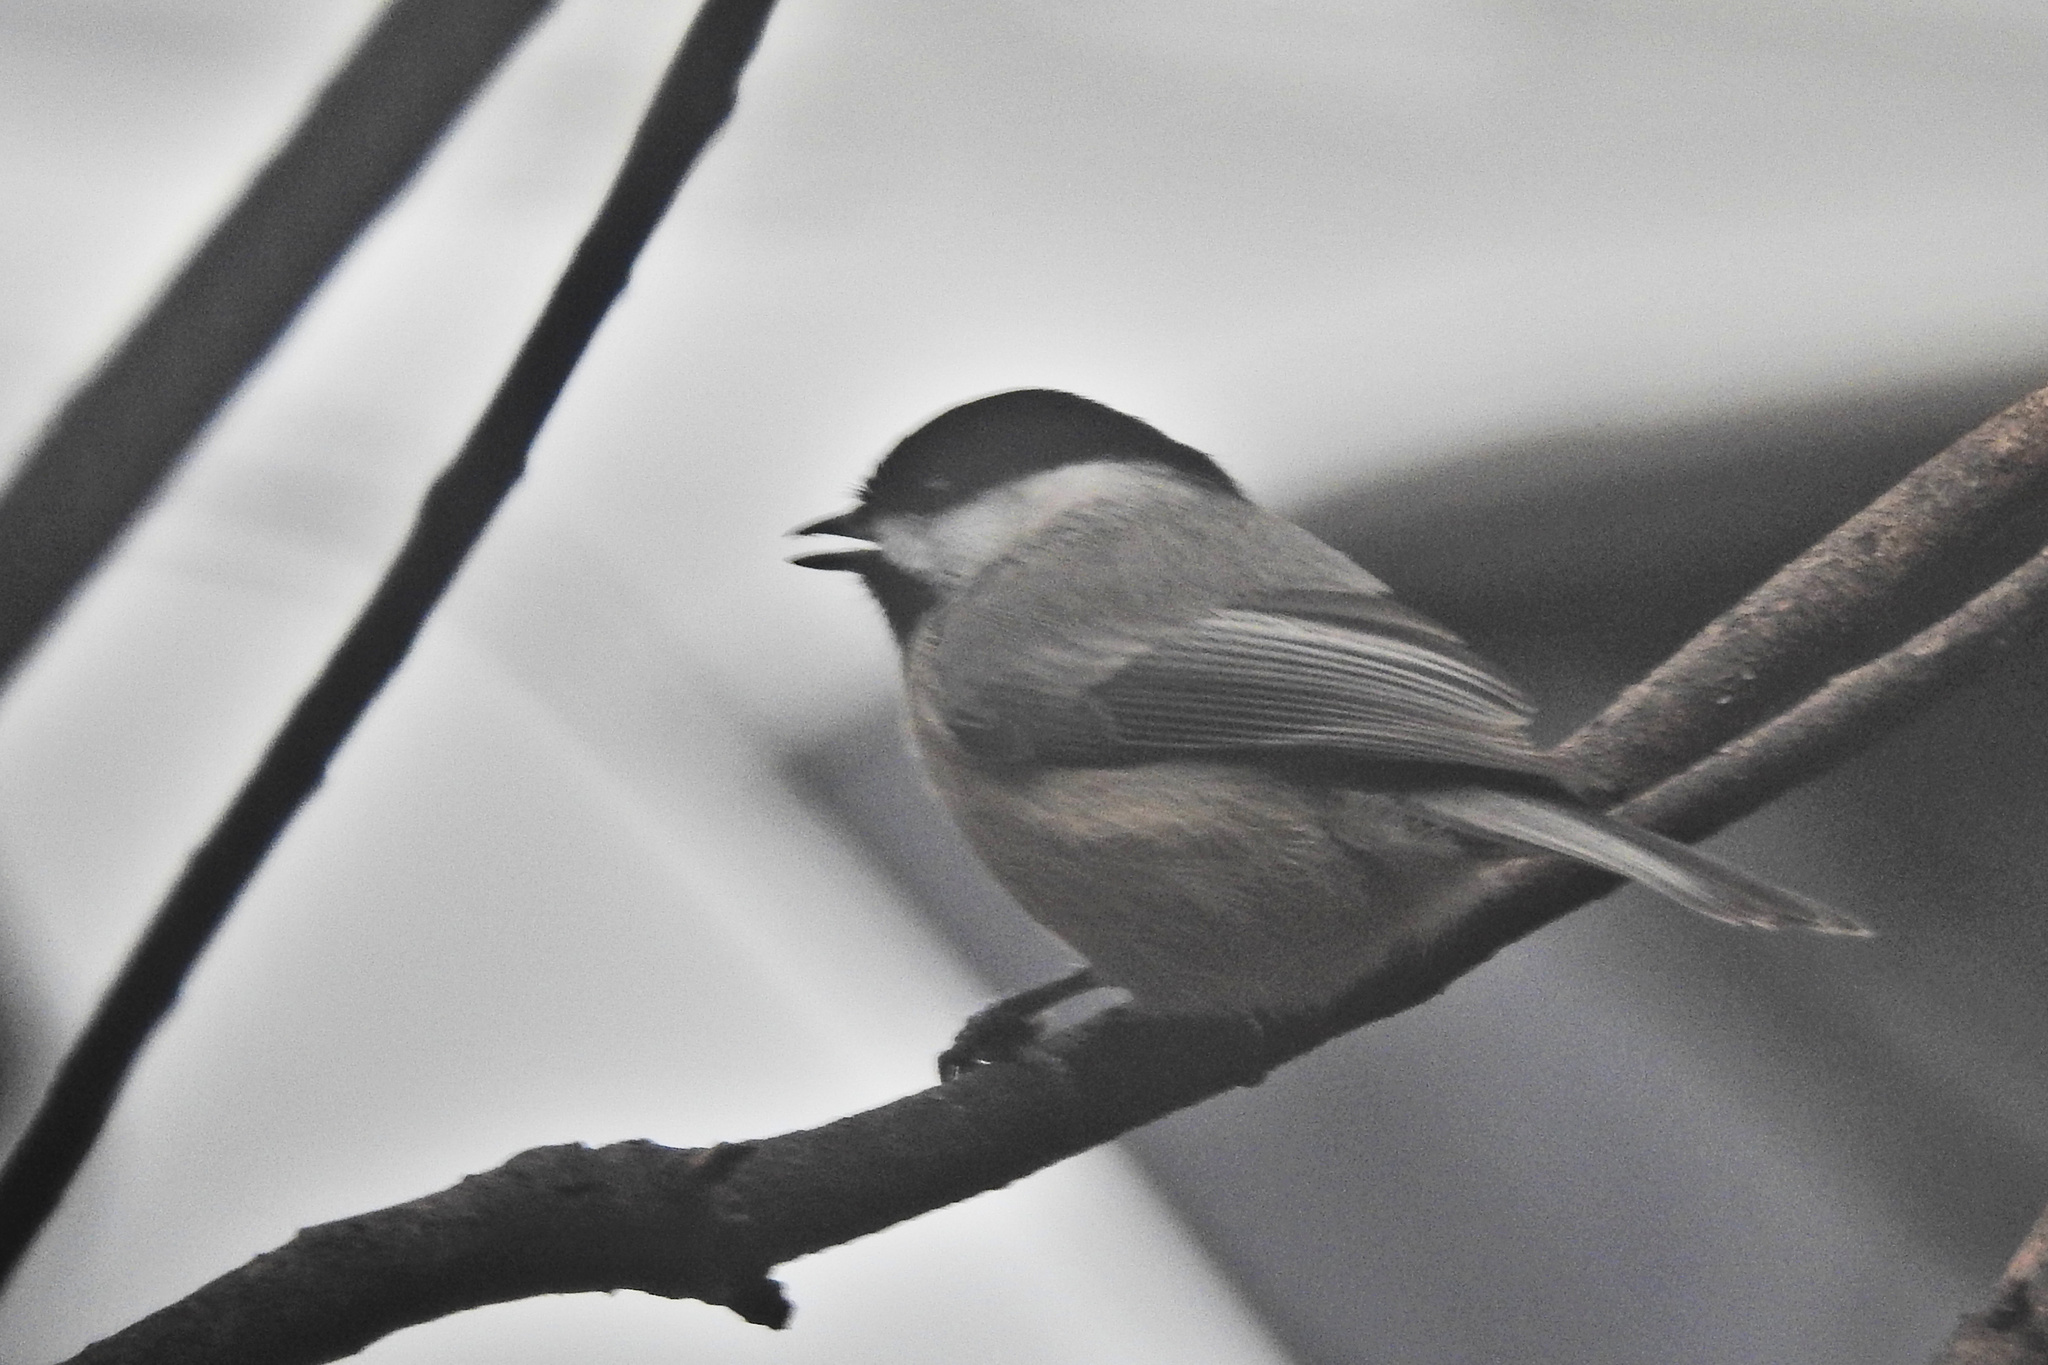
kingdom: Animalia
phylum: Chordata
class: Aves
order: Passeriformes
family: Paridae
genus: Poecile
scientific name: Poecile carolinensis
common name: Carolina chickadee
